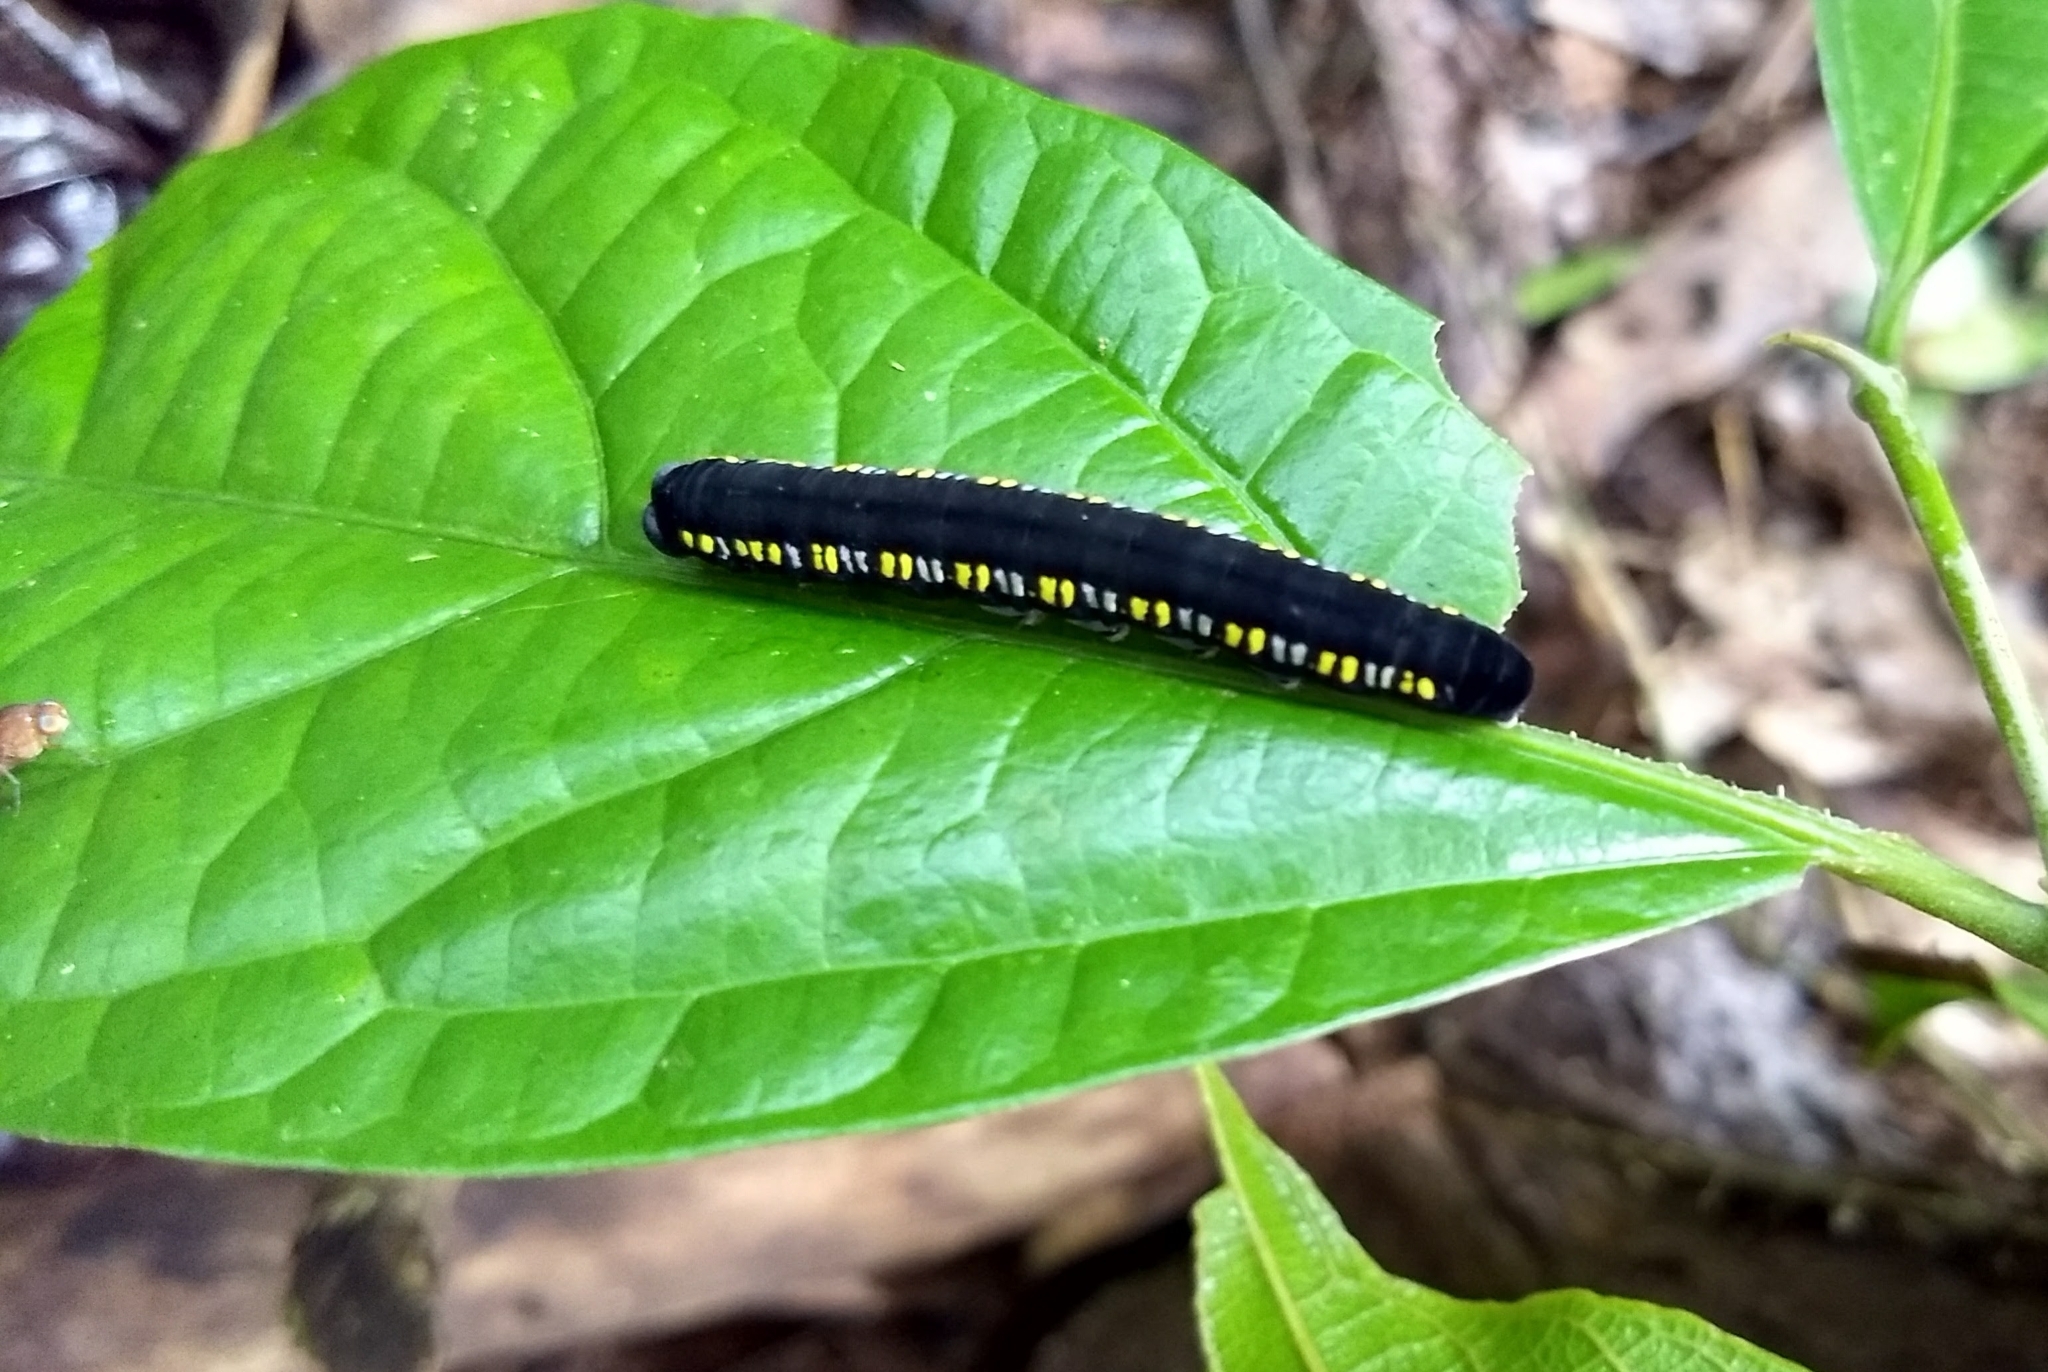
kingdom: Animalia
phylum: Arthropoda
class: Insecta
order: Lepidoptera
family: Erebidae
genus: Oraesia
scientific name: Oraesia emarginata
